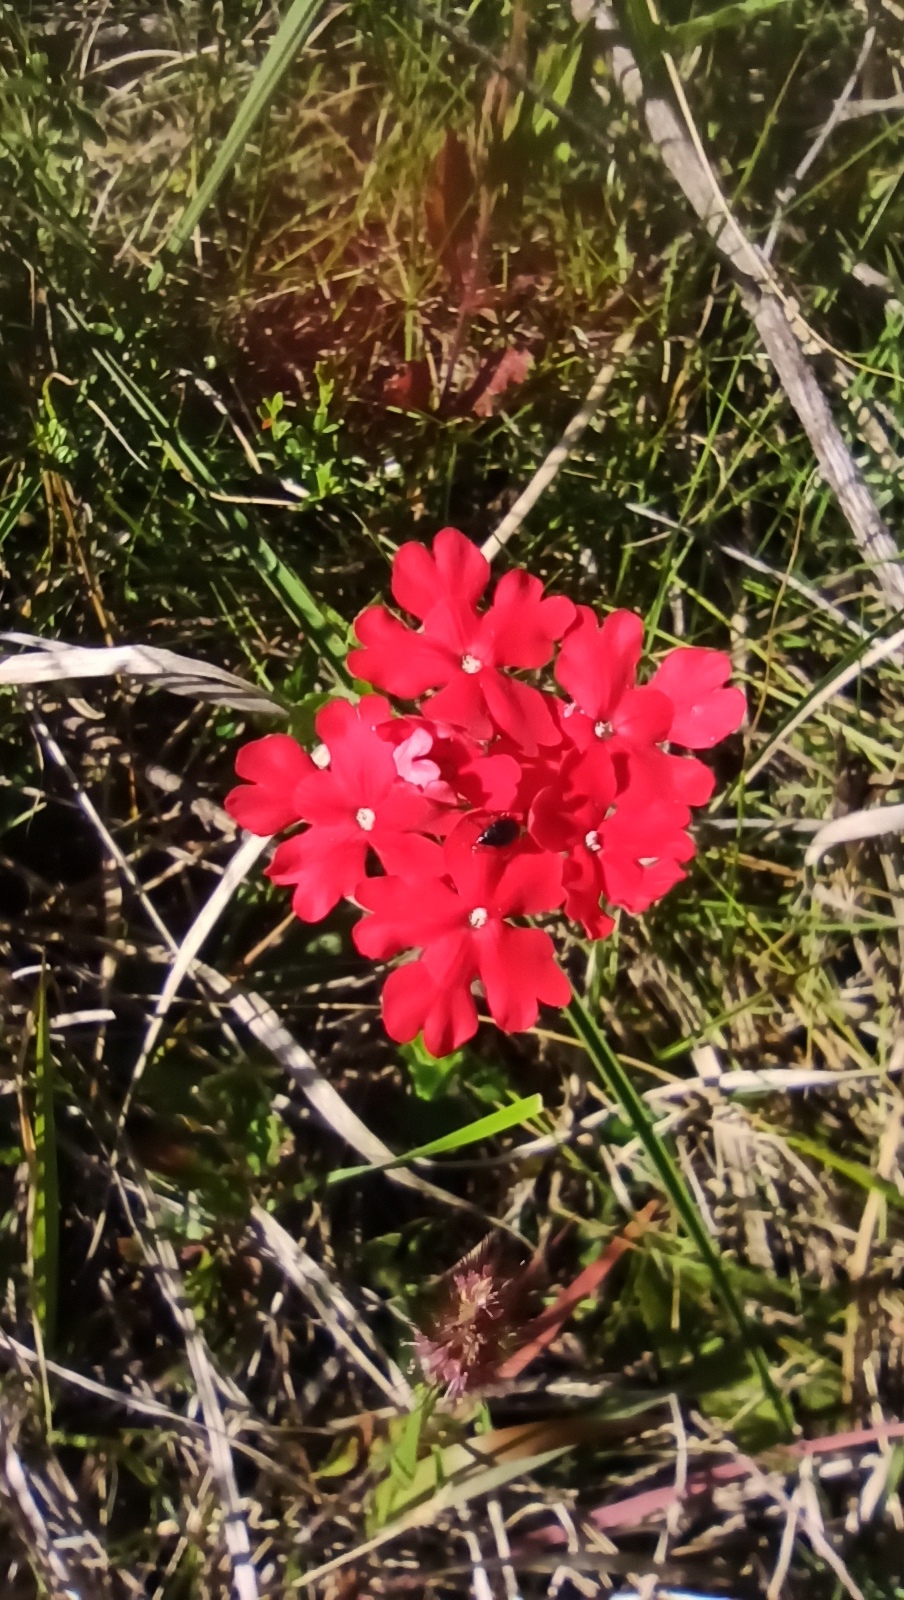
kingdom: Plantae
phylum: Tracheophyta
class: Magnoliopsida
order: Lamiales
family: Verbenaceae
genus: Verbena
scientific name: Verbena peruviana
